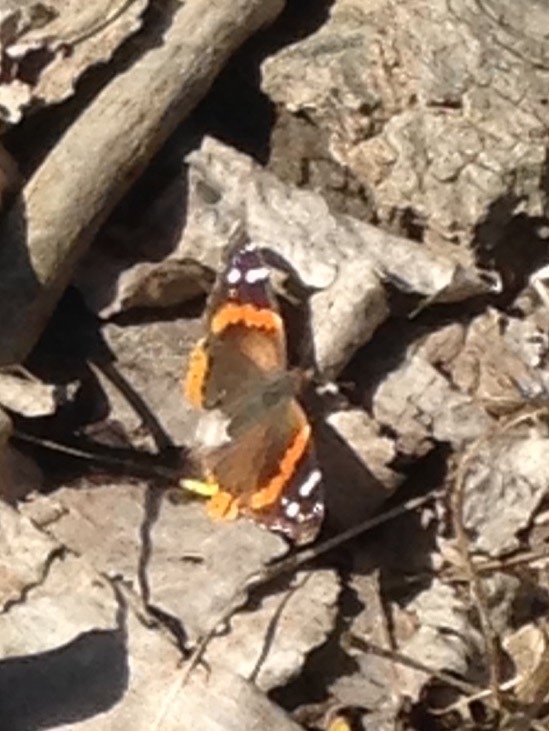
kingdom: Animalia
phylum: Arthropoda
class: Insecta
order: Lepidoptera
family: Nymphalidae
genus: Vanessa
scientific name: Vanessa atalanta
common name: Red admiral
